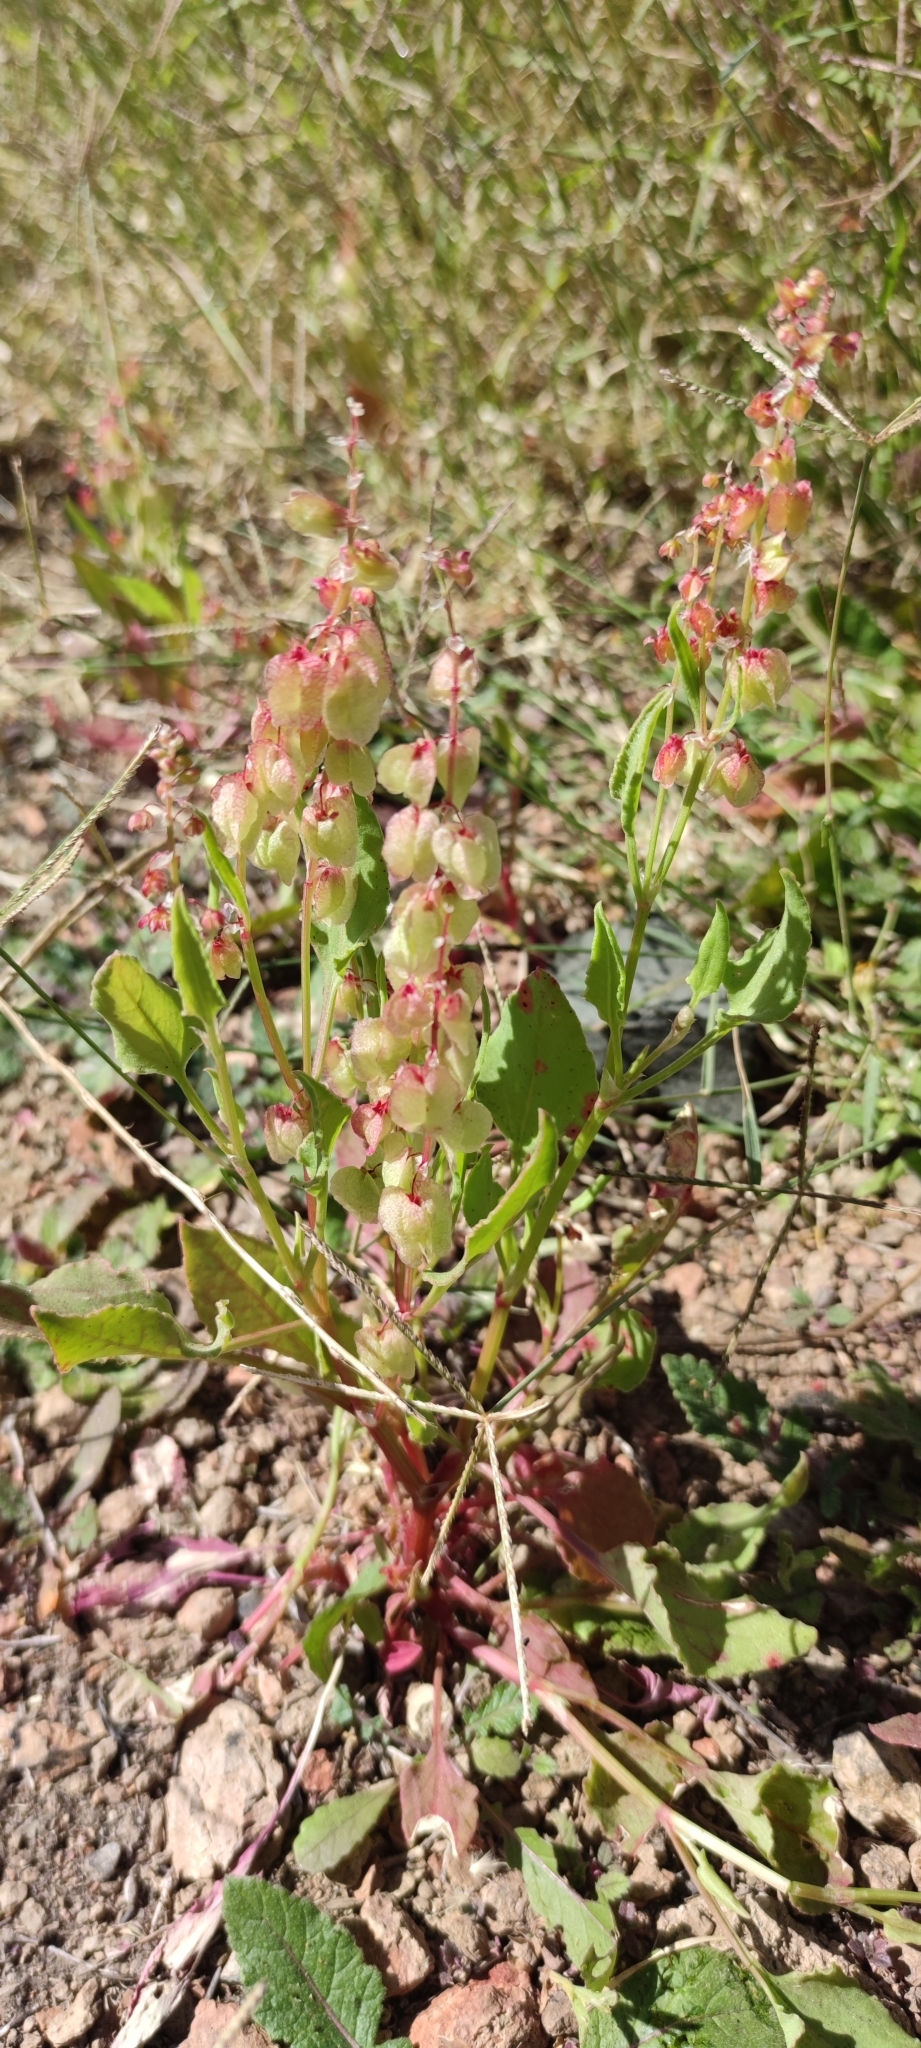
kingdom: Plantae
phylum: Tracheophyta
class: Magnoliopsida
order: Caryophyllales
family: Polygonaceae
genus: Rumex
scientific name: Rumex vesicarius
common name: Bladder dock
